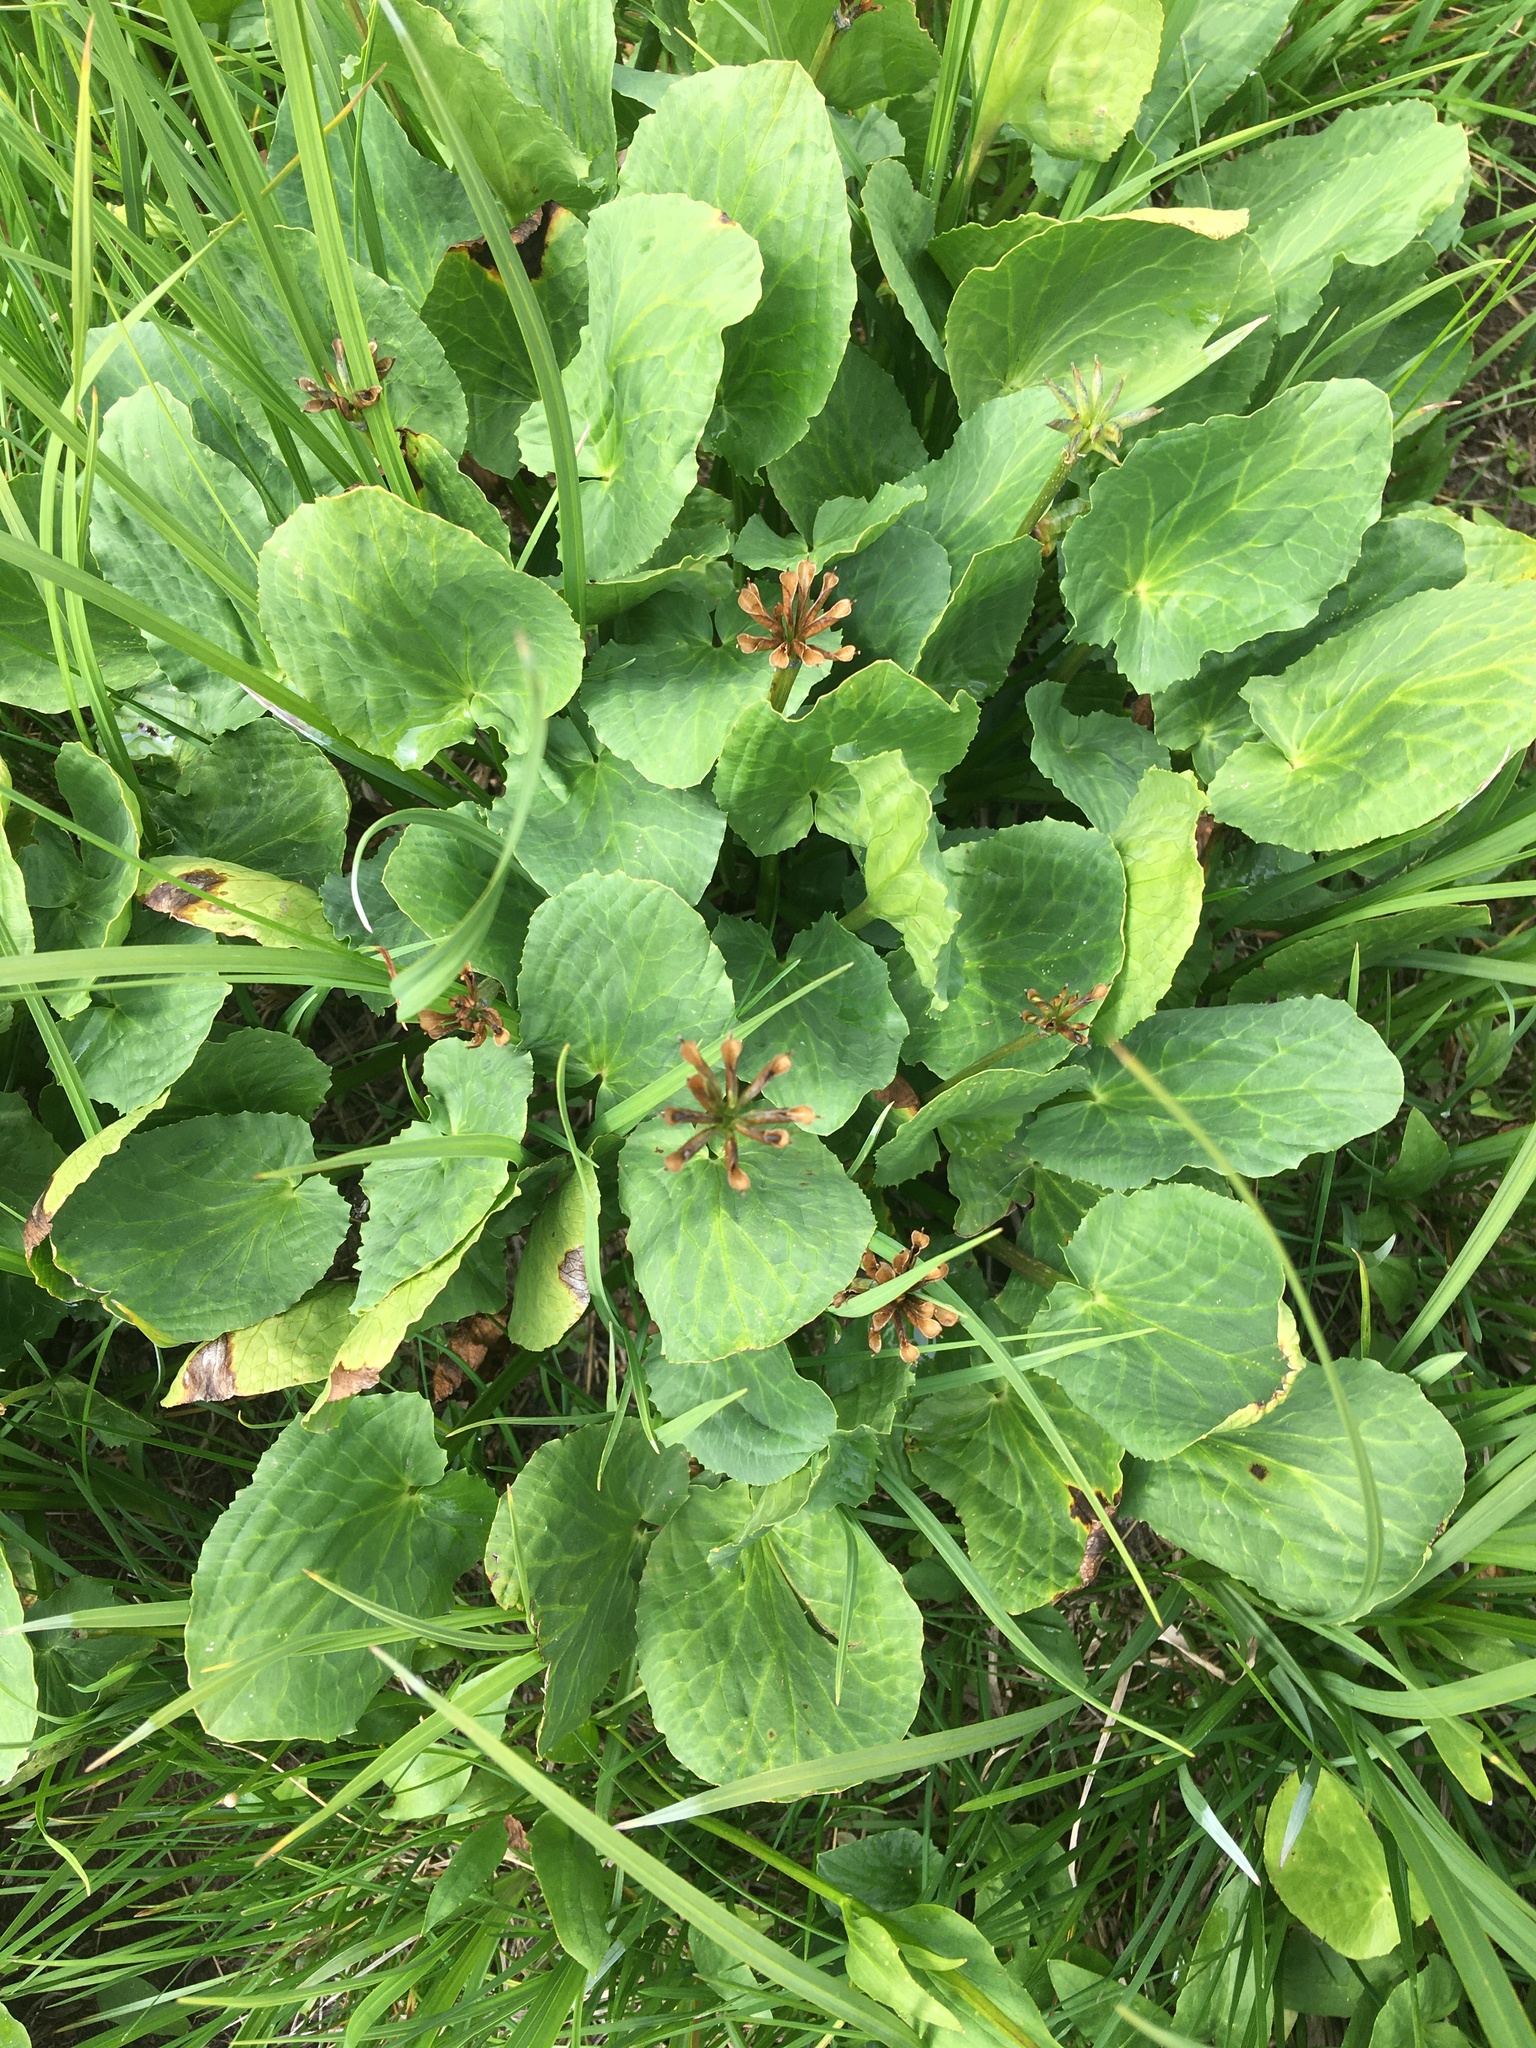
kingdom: Plantae
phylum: Tracheophyta
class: Magnoliopsida
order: Ranunculales
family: Ranunculaceae
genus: Caltha
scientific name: Caltha leptosepala
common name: Elkslip
